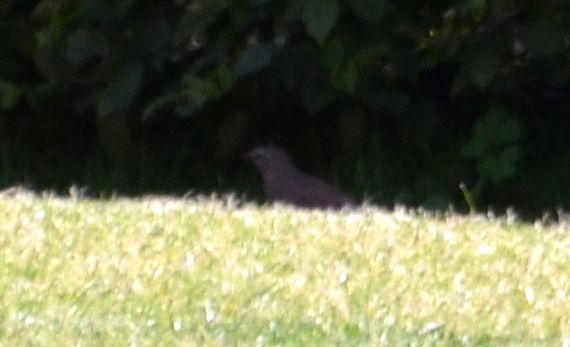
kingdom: Animalia
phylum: Chordata
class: Aves
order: Passeriformes
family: Turdidae
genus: Turdus
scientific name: Turdus merula
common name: Common blackbird
